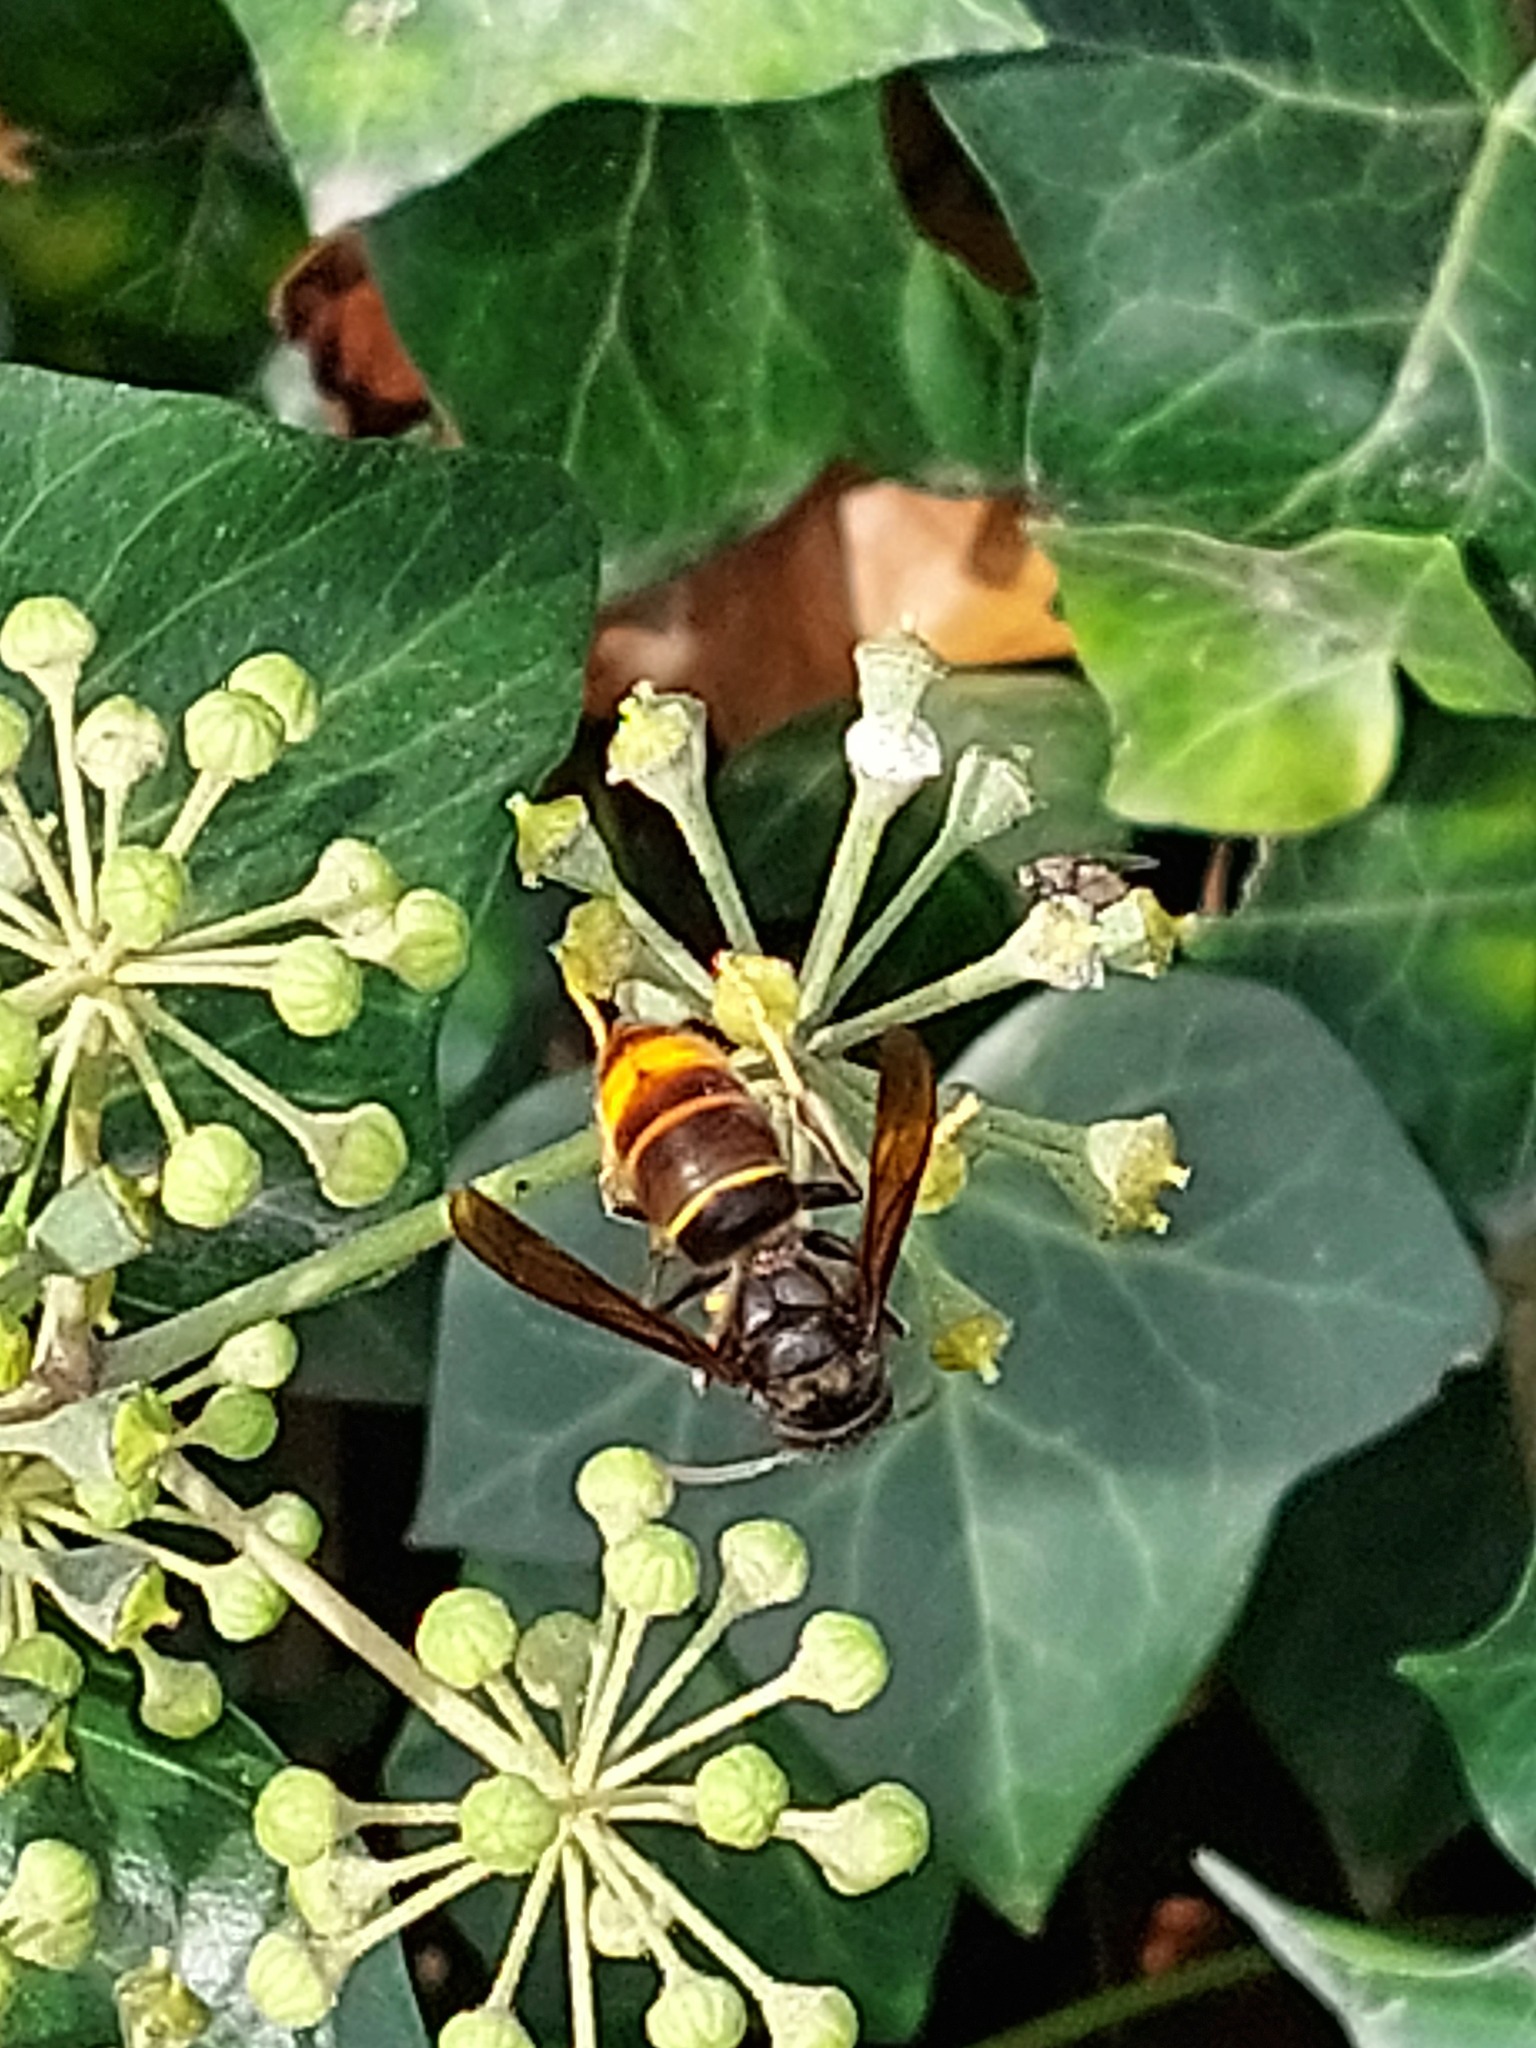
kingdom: Animalia
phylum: Arthropoda
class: Insecta
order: Hymenoptera
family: Vespidae
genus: Vespa
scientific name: Vespa velutina
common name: Asian hornet
